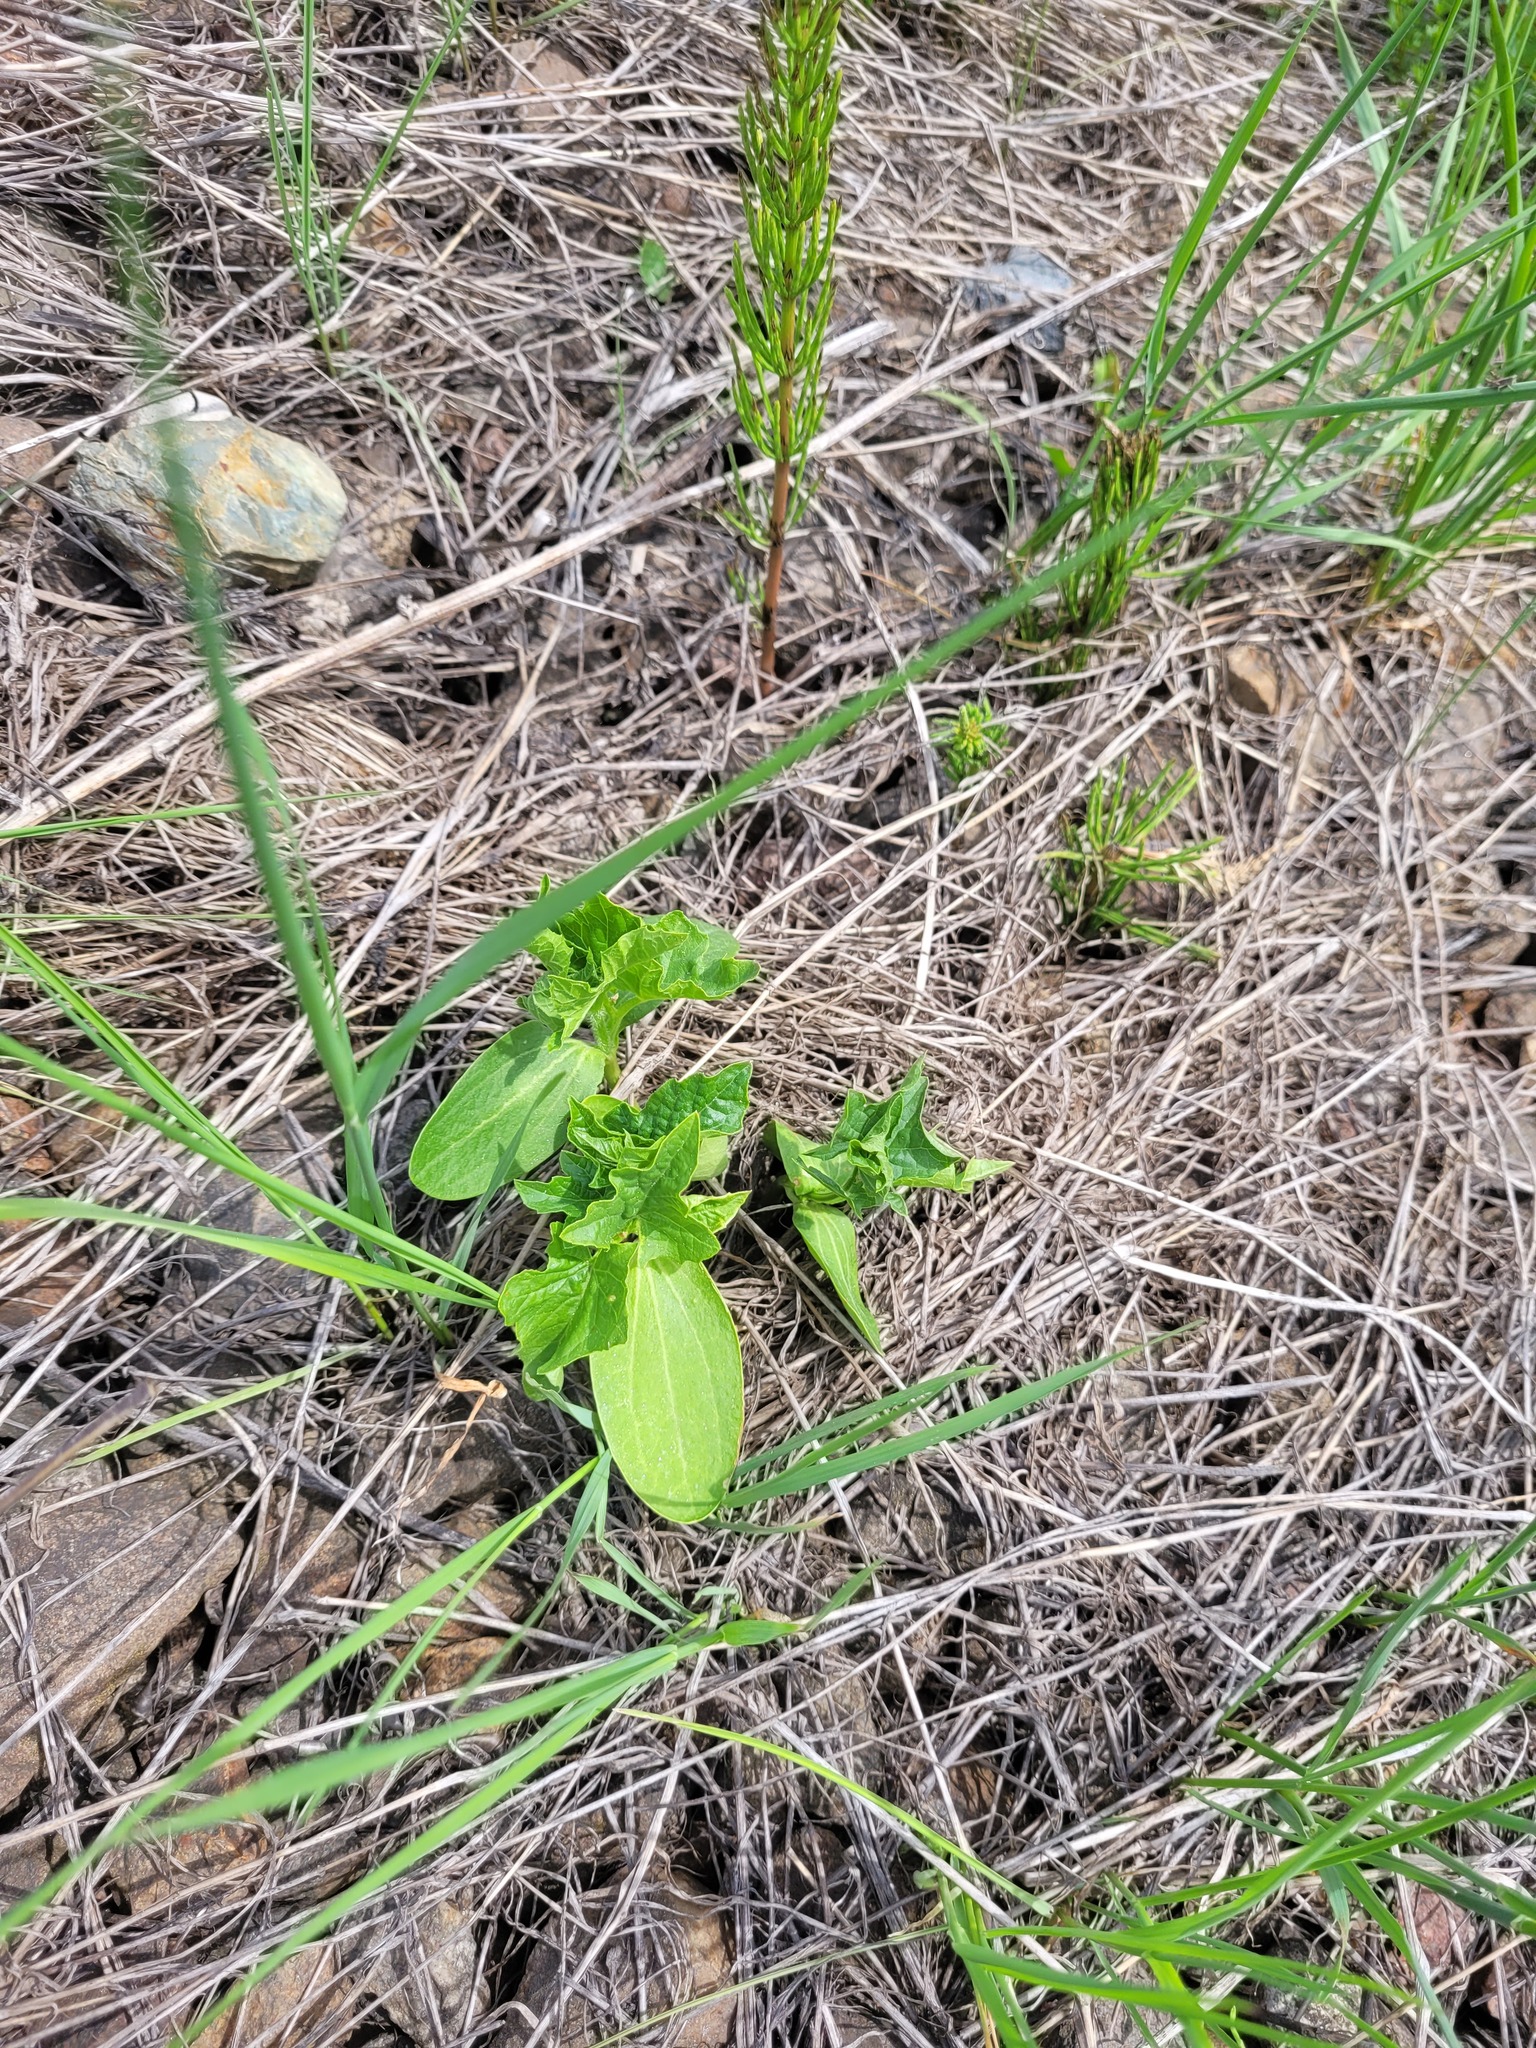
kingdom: Plantae
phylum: Tracheophyta
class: Magnoliopsida
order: Cucurbitales
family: Cucurbitaceae
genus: Echinocystis
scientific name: Echinocystis lobata
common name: Wild cucumber
